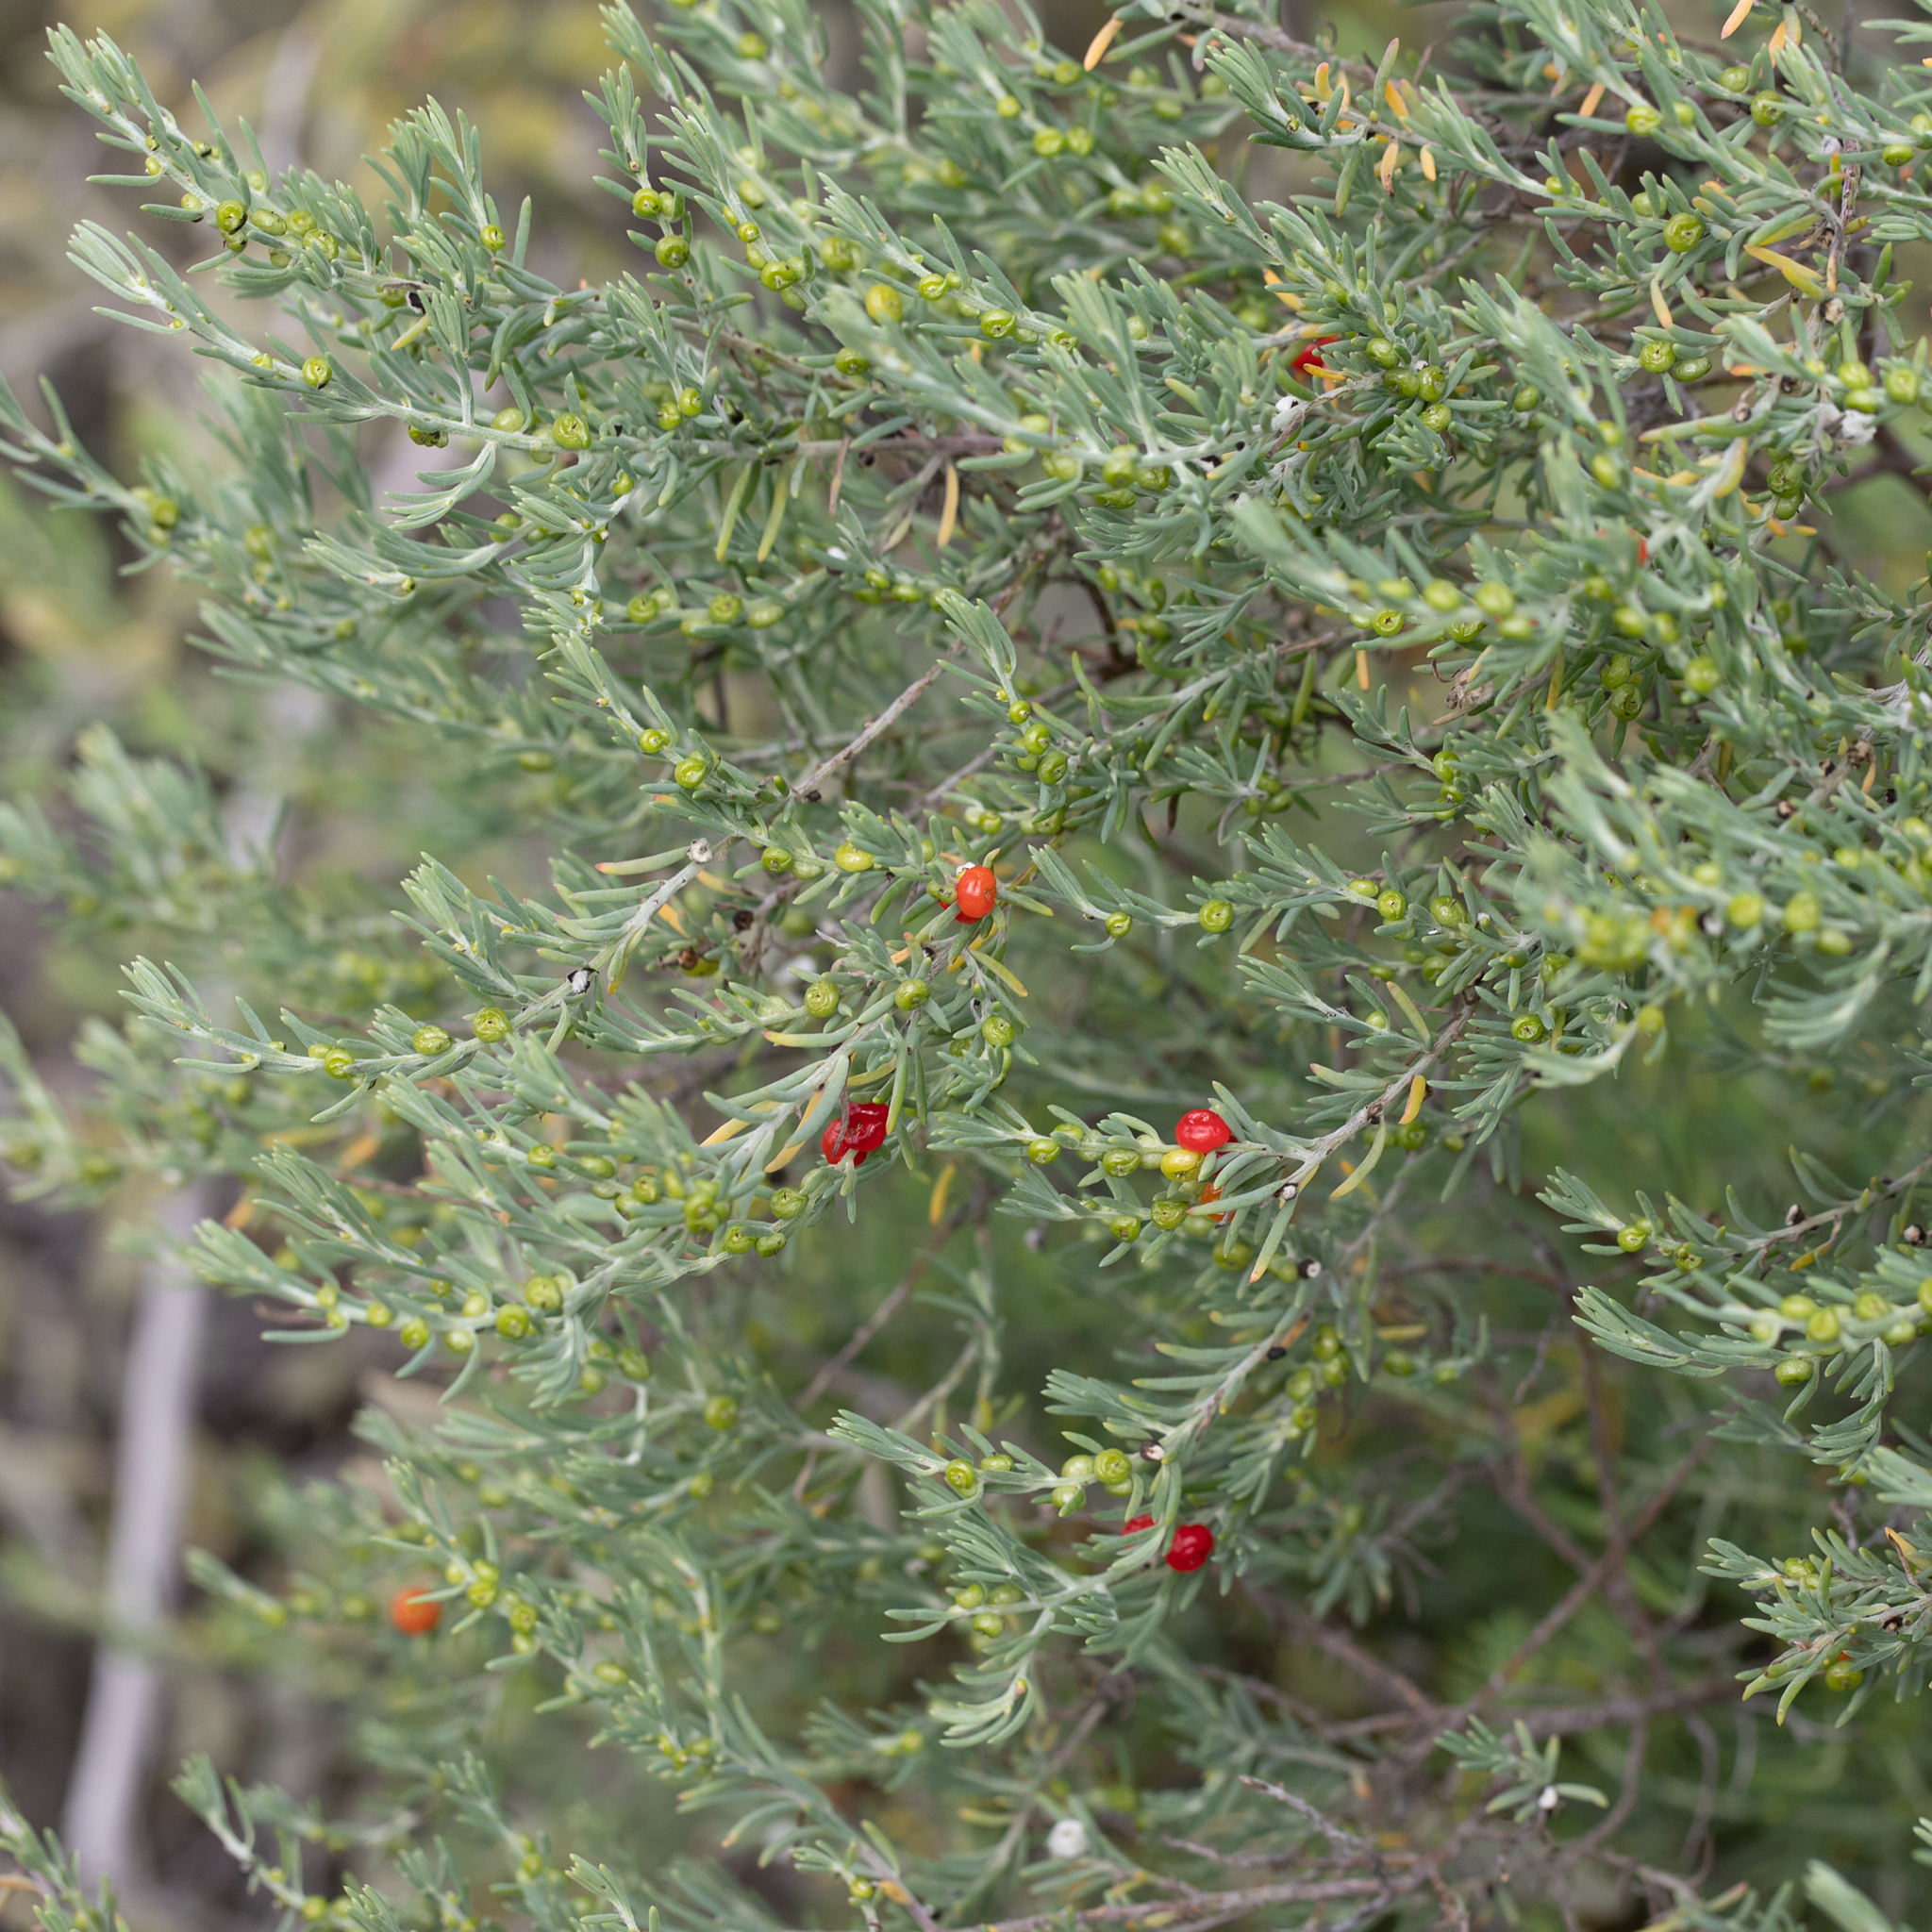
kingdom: Plantae
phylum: Tracheophyta
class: Magnoliopsida
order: Caryophyllales
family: Amaranthaceae
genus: Enchylaena
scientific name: Enchylaena tomentosa
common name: Ruby saltbush
